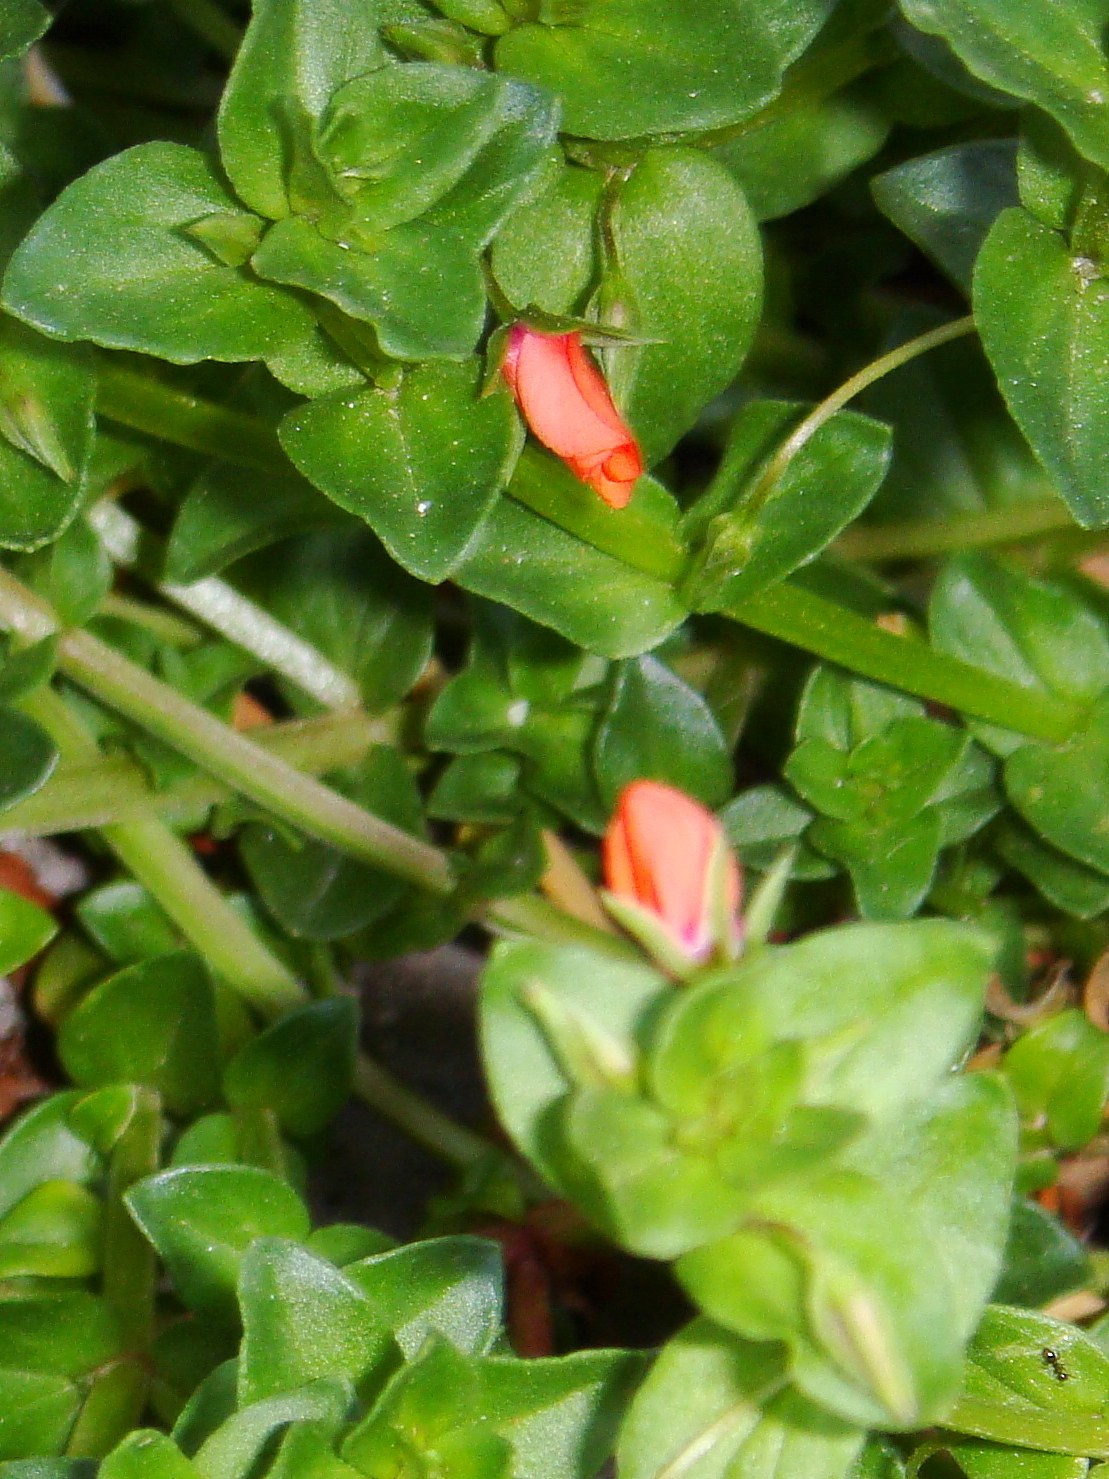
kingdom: Plantae
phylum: Tracheophyta
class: Magnoliopsida
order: Ericales
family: Primulaceae
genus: Lysimachia
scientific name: Lysimachia arvensis
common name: Scarlet pimpernel
